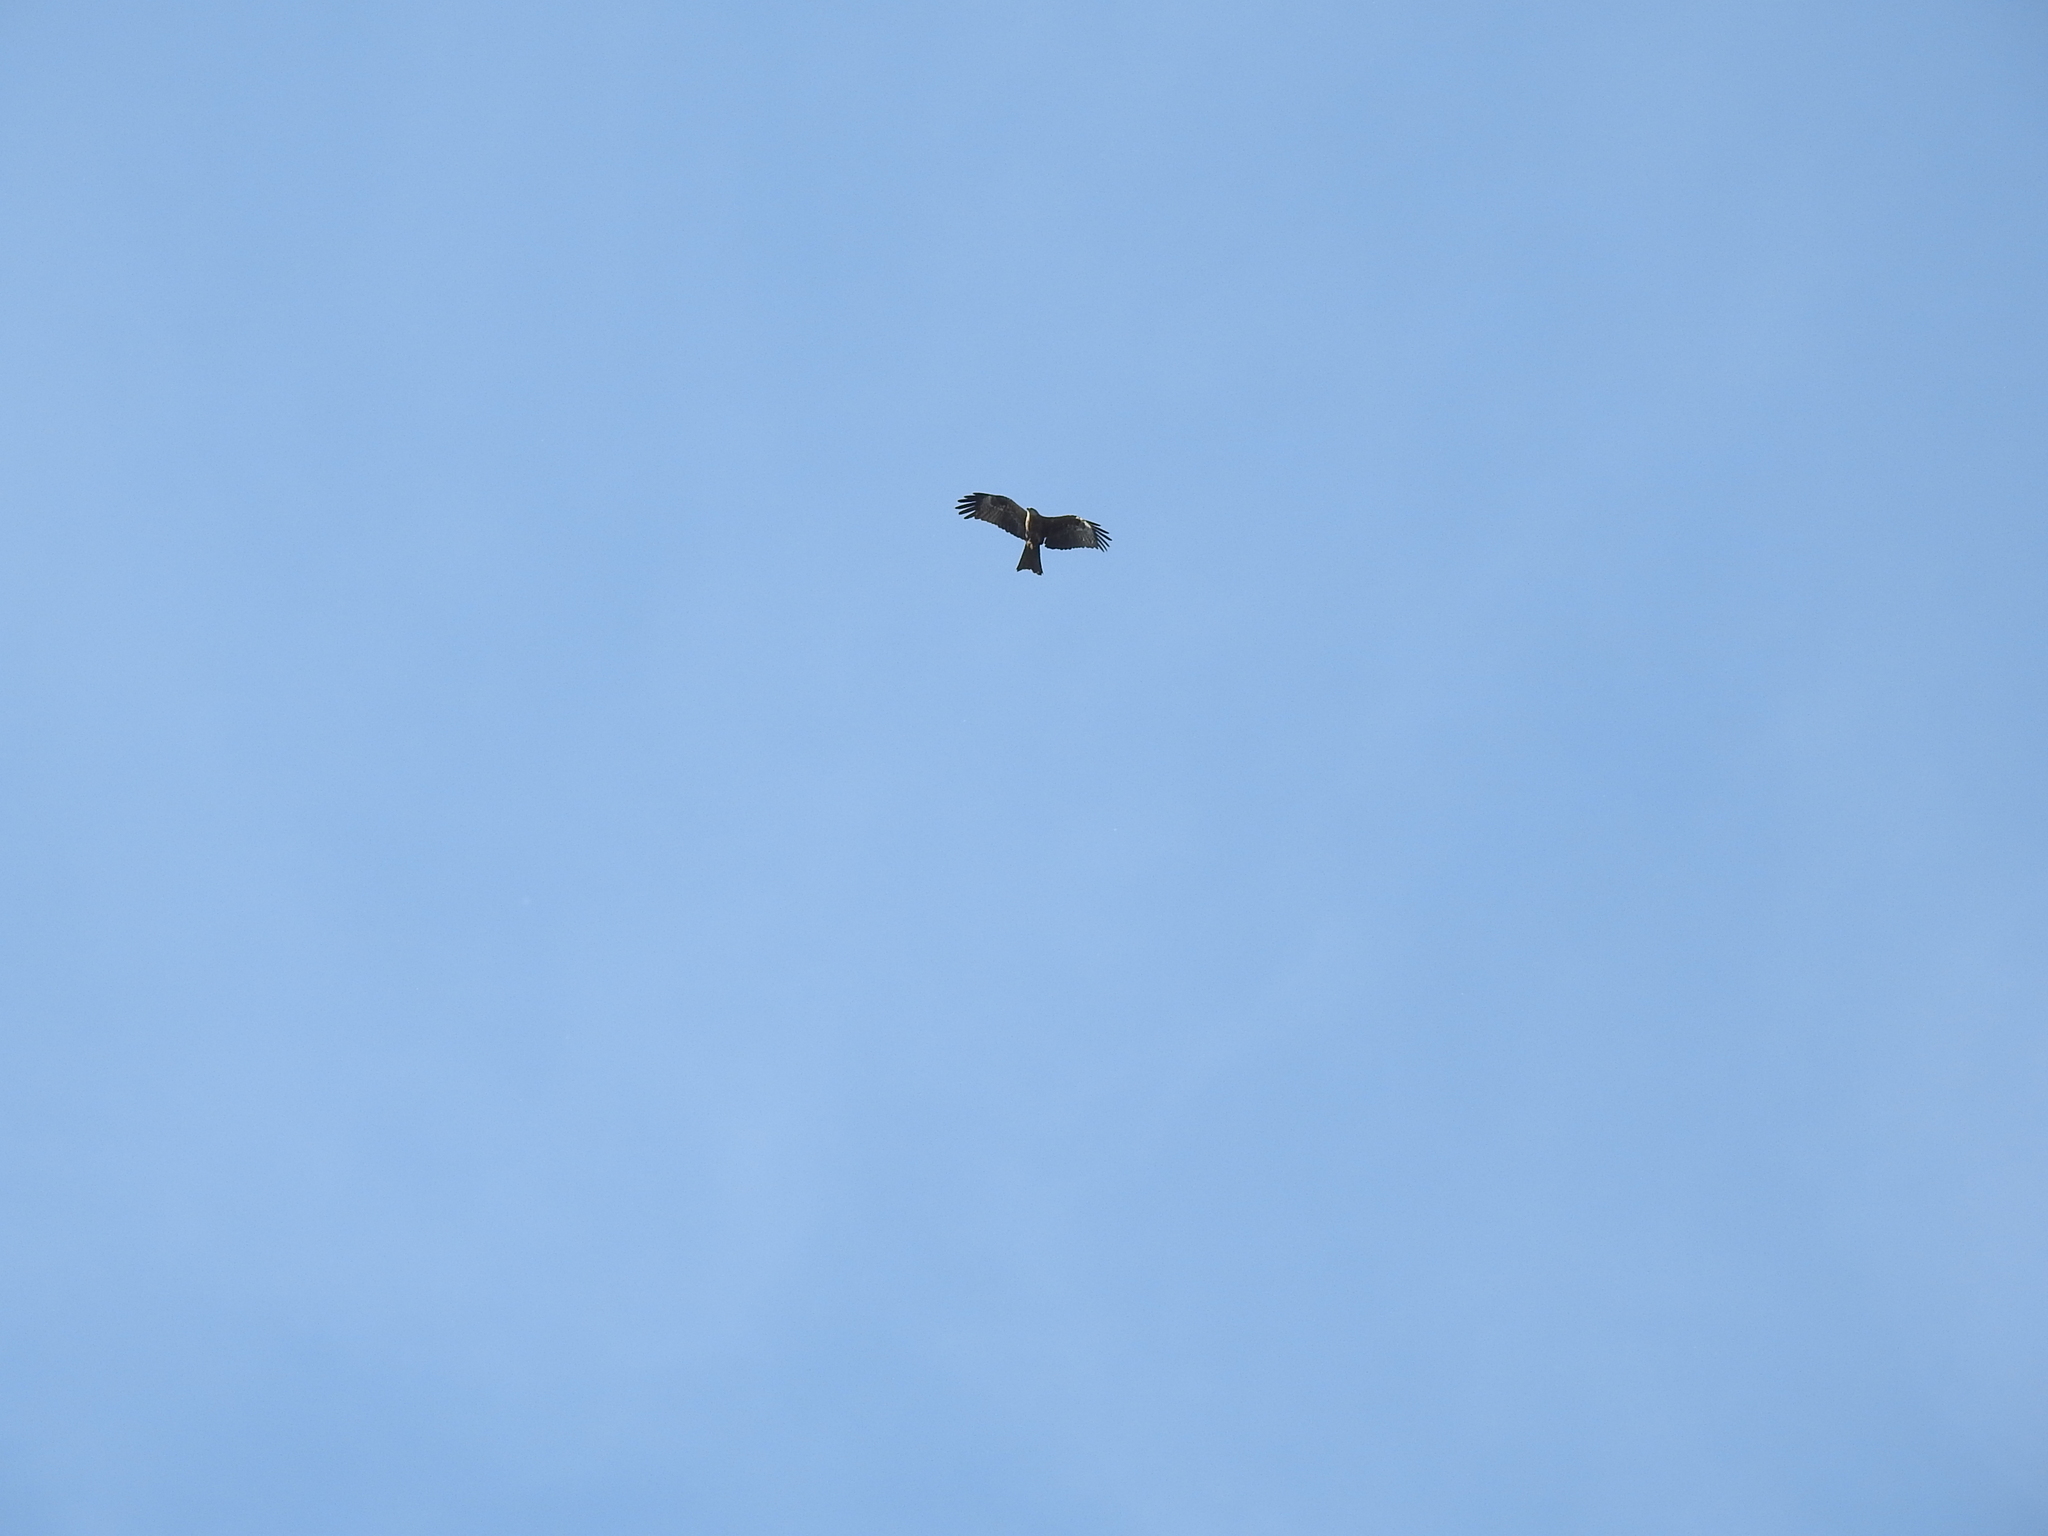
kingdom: Animalia
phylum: Chordata
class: Aves
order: Accipitriformes
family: Accipitridae
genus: Milvus
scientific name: Milvus migrans
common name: Black kite
